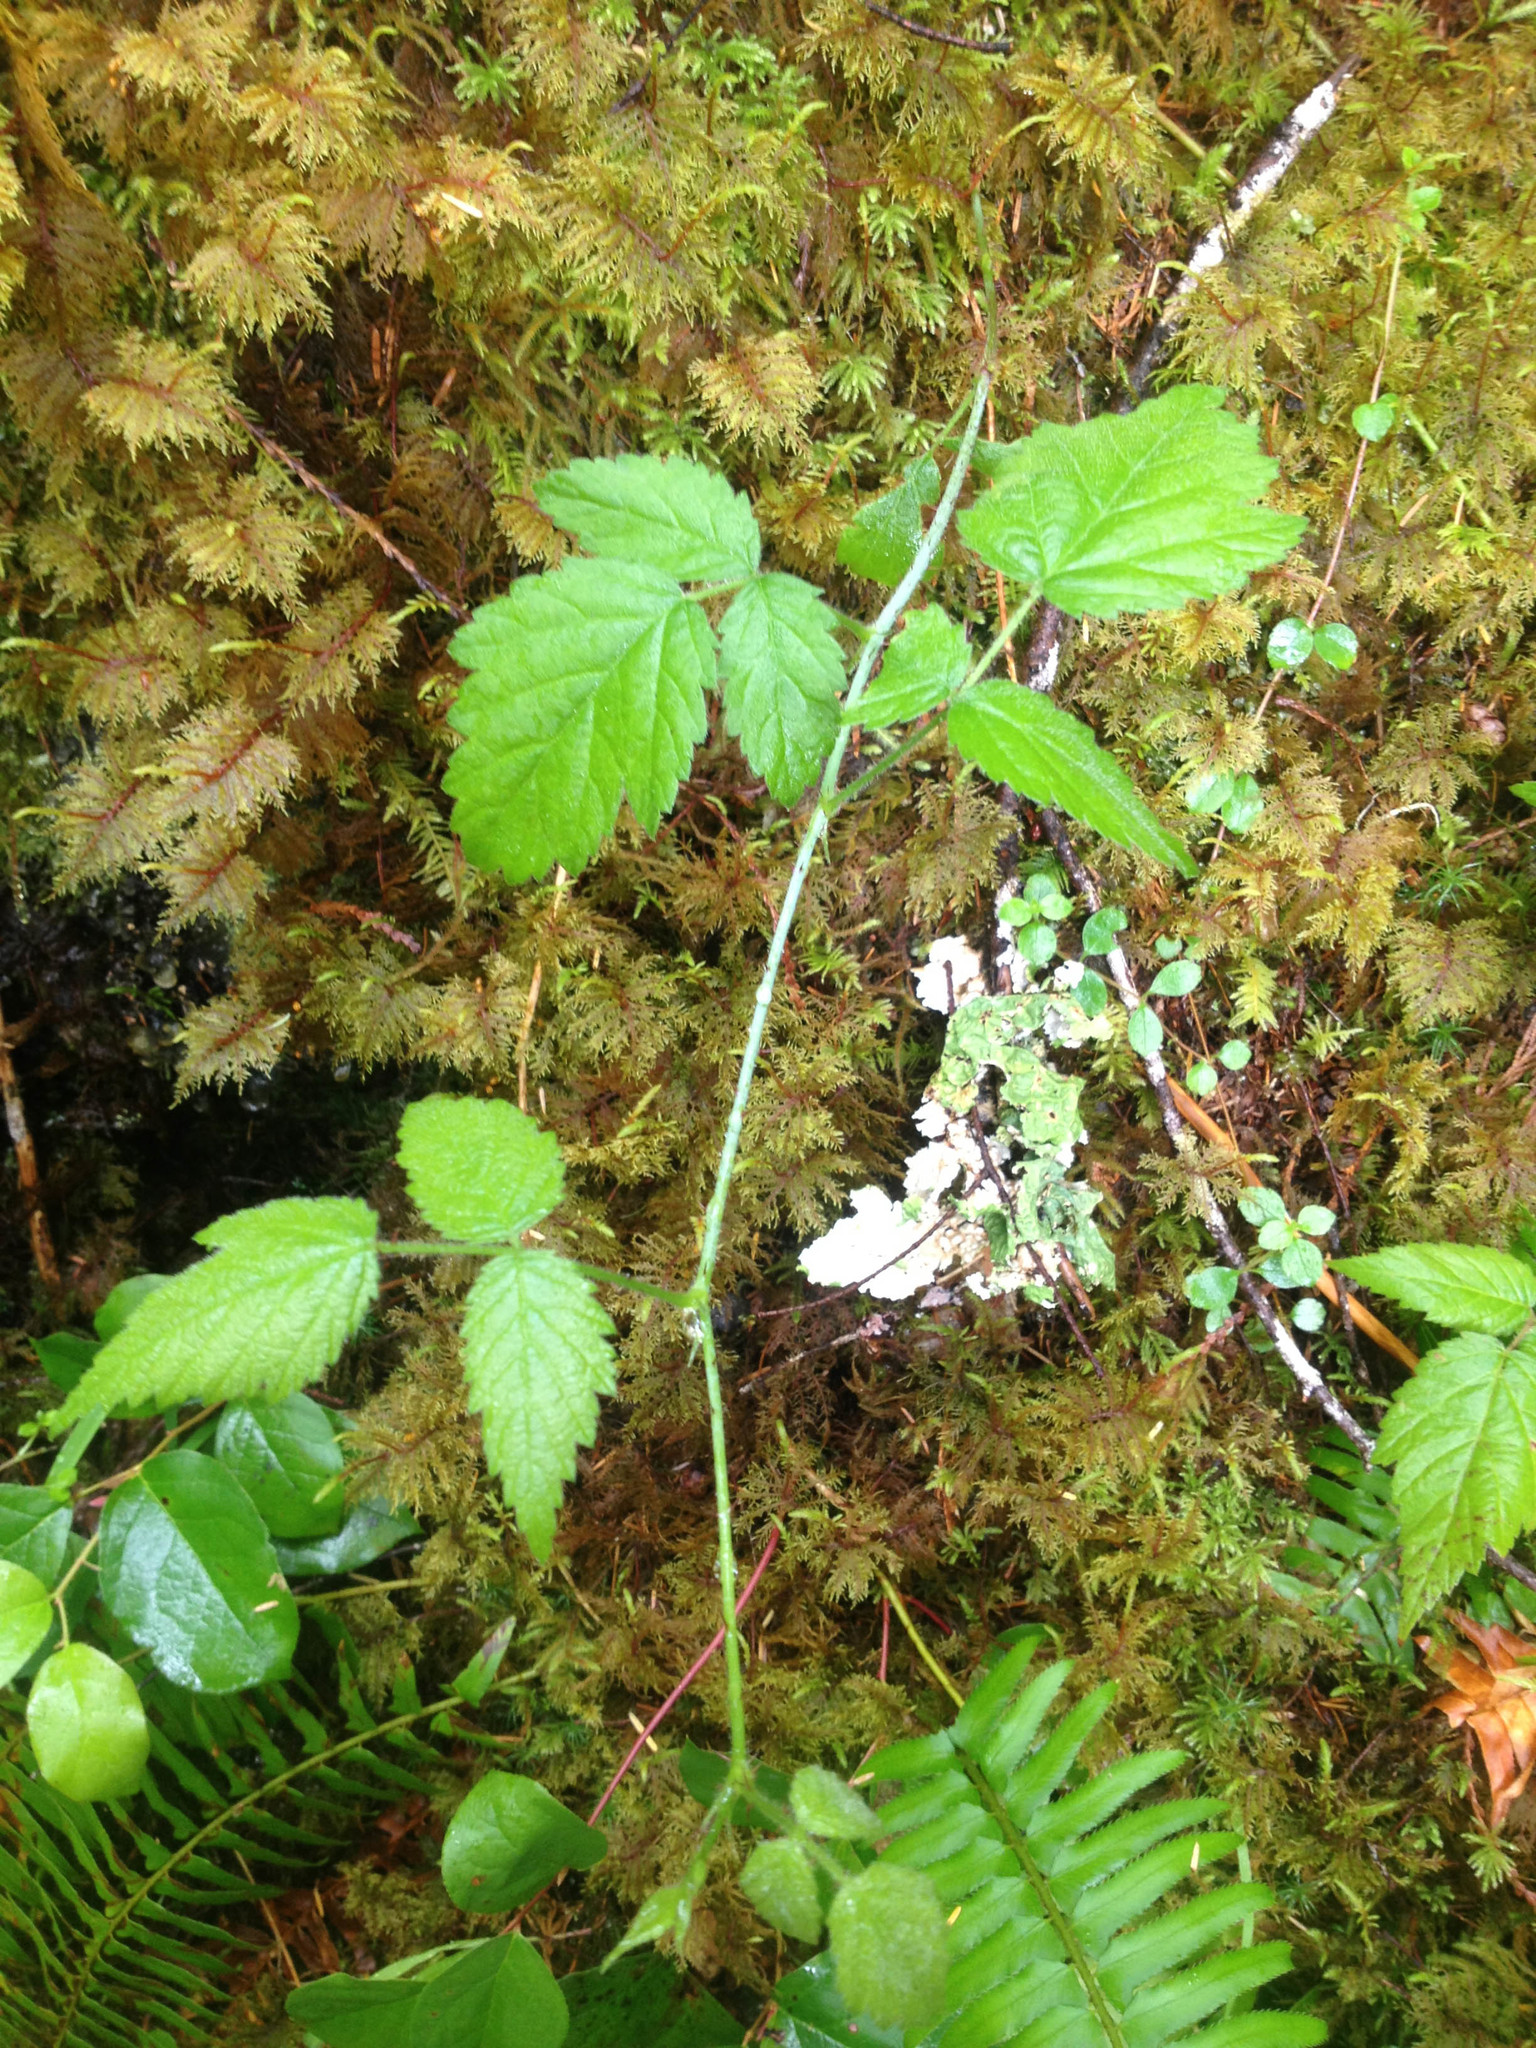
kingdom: Plantae
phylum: Tracheophyta
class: Magnoliopsida
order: Rosales
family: Rosaceae
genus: Rubus
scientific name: Rubus ursinus
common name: Pacific blackberry
